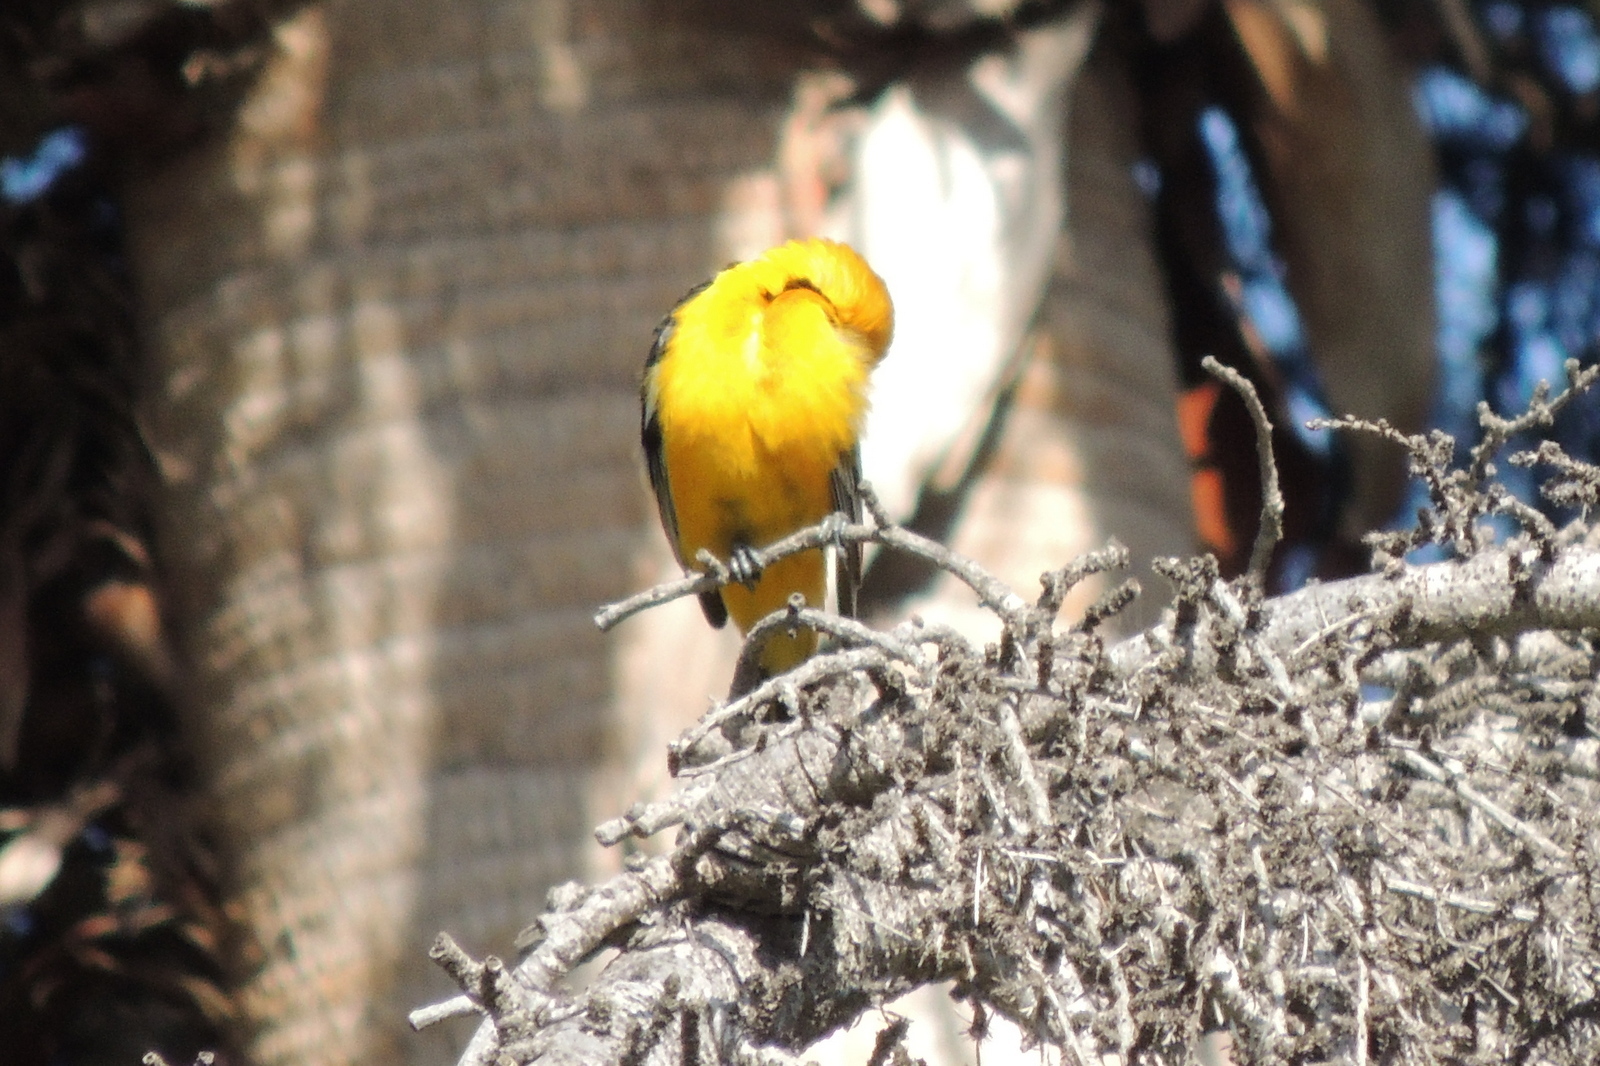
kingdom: Animalia
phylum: Chordata
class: Aves
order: Passeriformes
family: Icteridae
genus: Icterus
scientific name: Icterus cucullatus
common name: Hooded oriole
